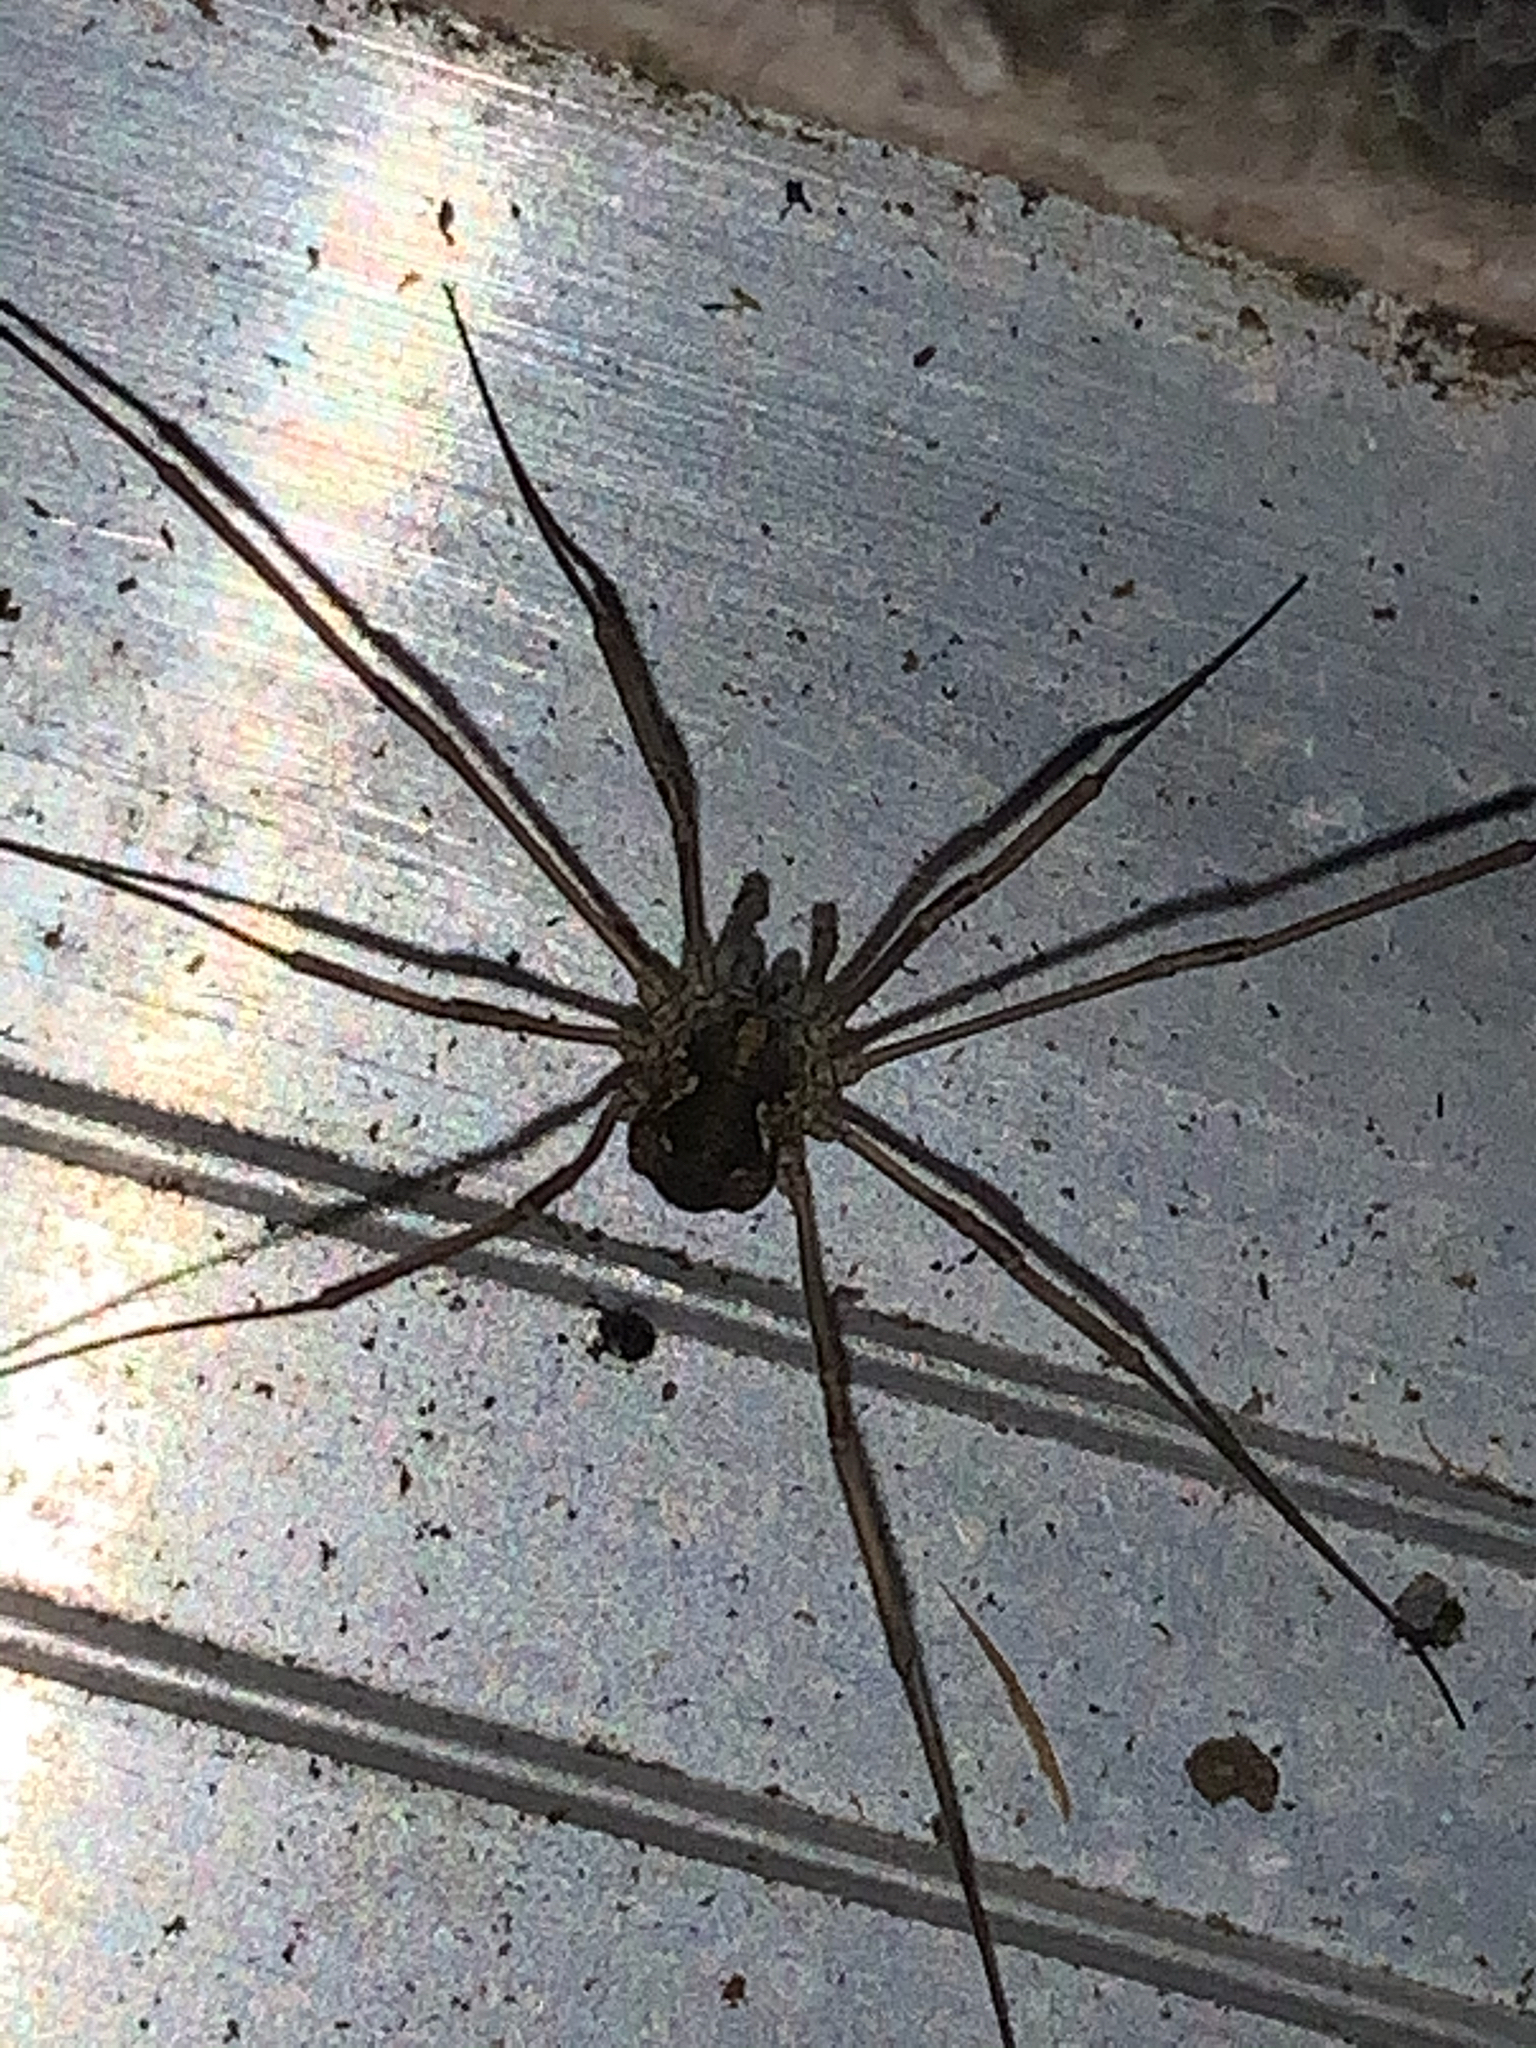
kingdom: Animalia
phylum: Arthropoda
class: Arachnida
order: Opiliones
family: Phalangiidae
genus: Phalangium
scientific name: Phalangium opilio
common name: Daddy longleg
